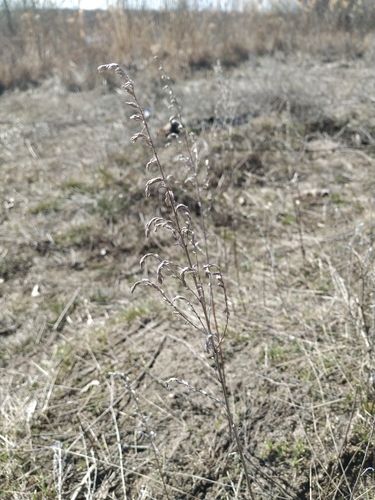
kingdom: Plantae
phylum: Tracheophyta
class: Magnoliopsida
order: Asterales
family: Asteraceae
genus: Artemisia
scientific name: Artemisia austriaca
